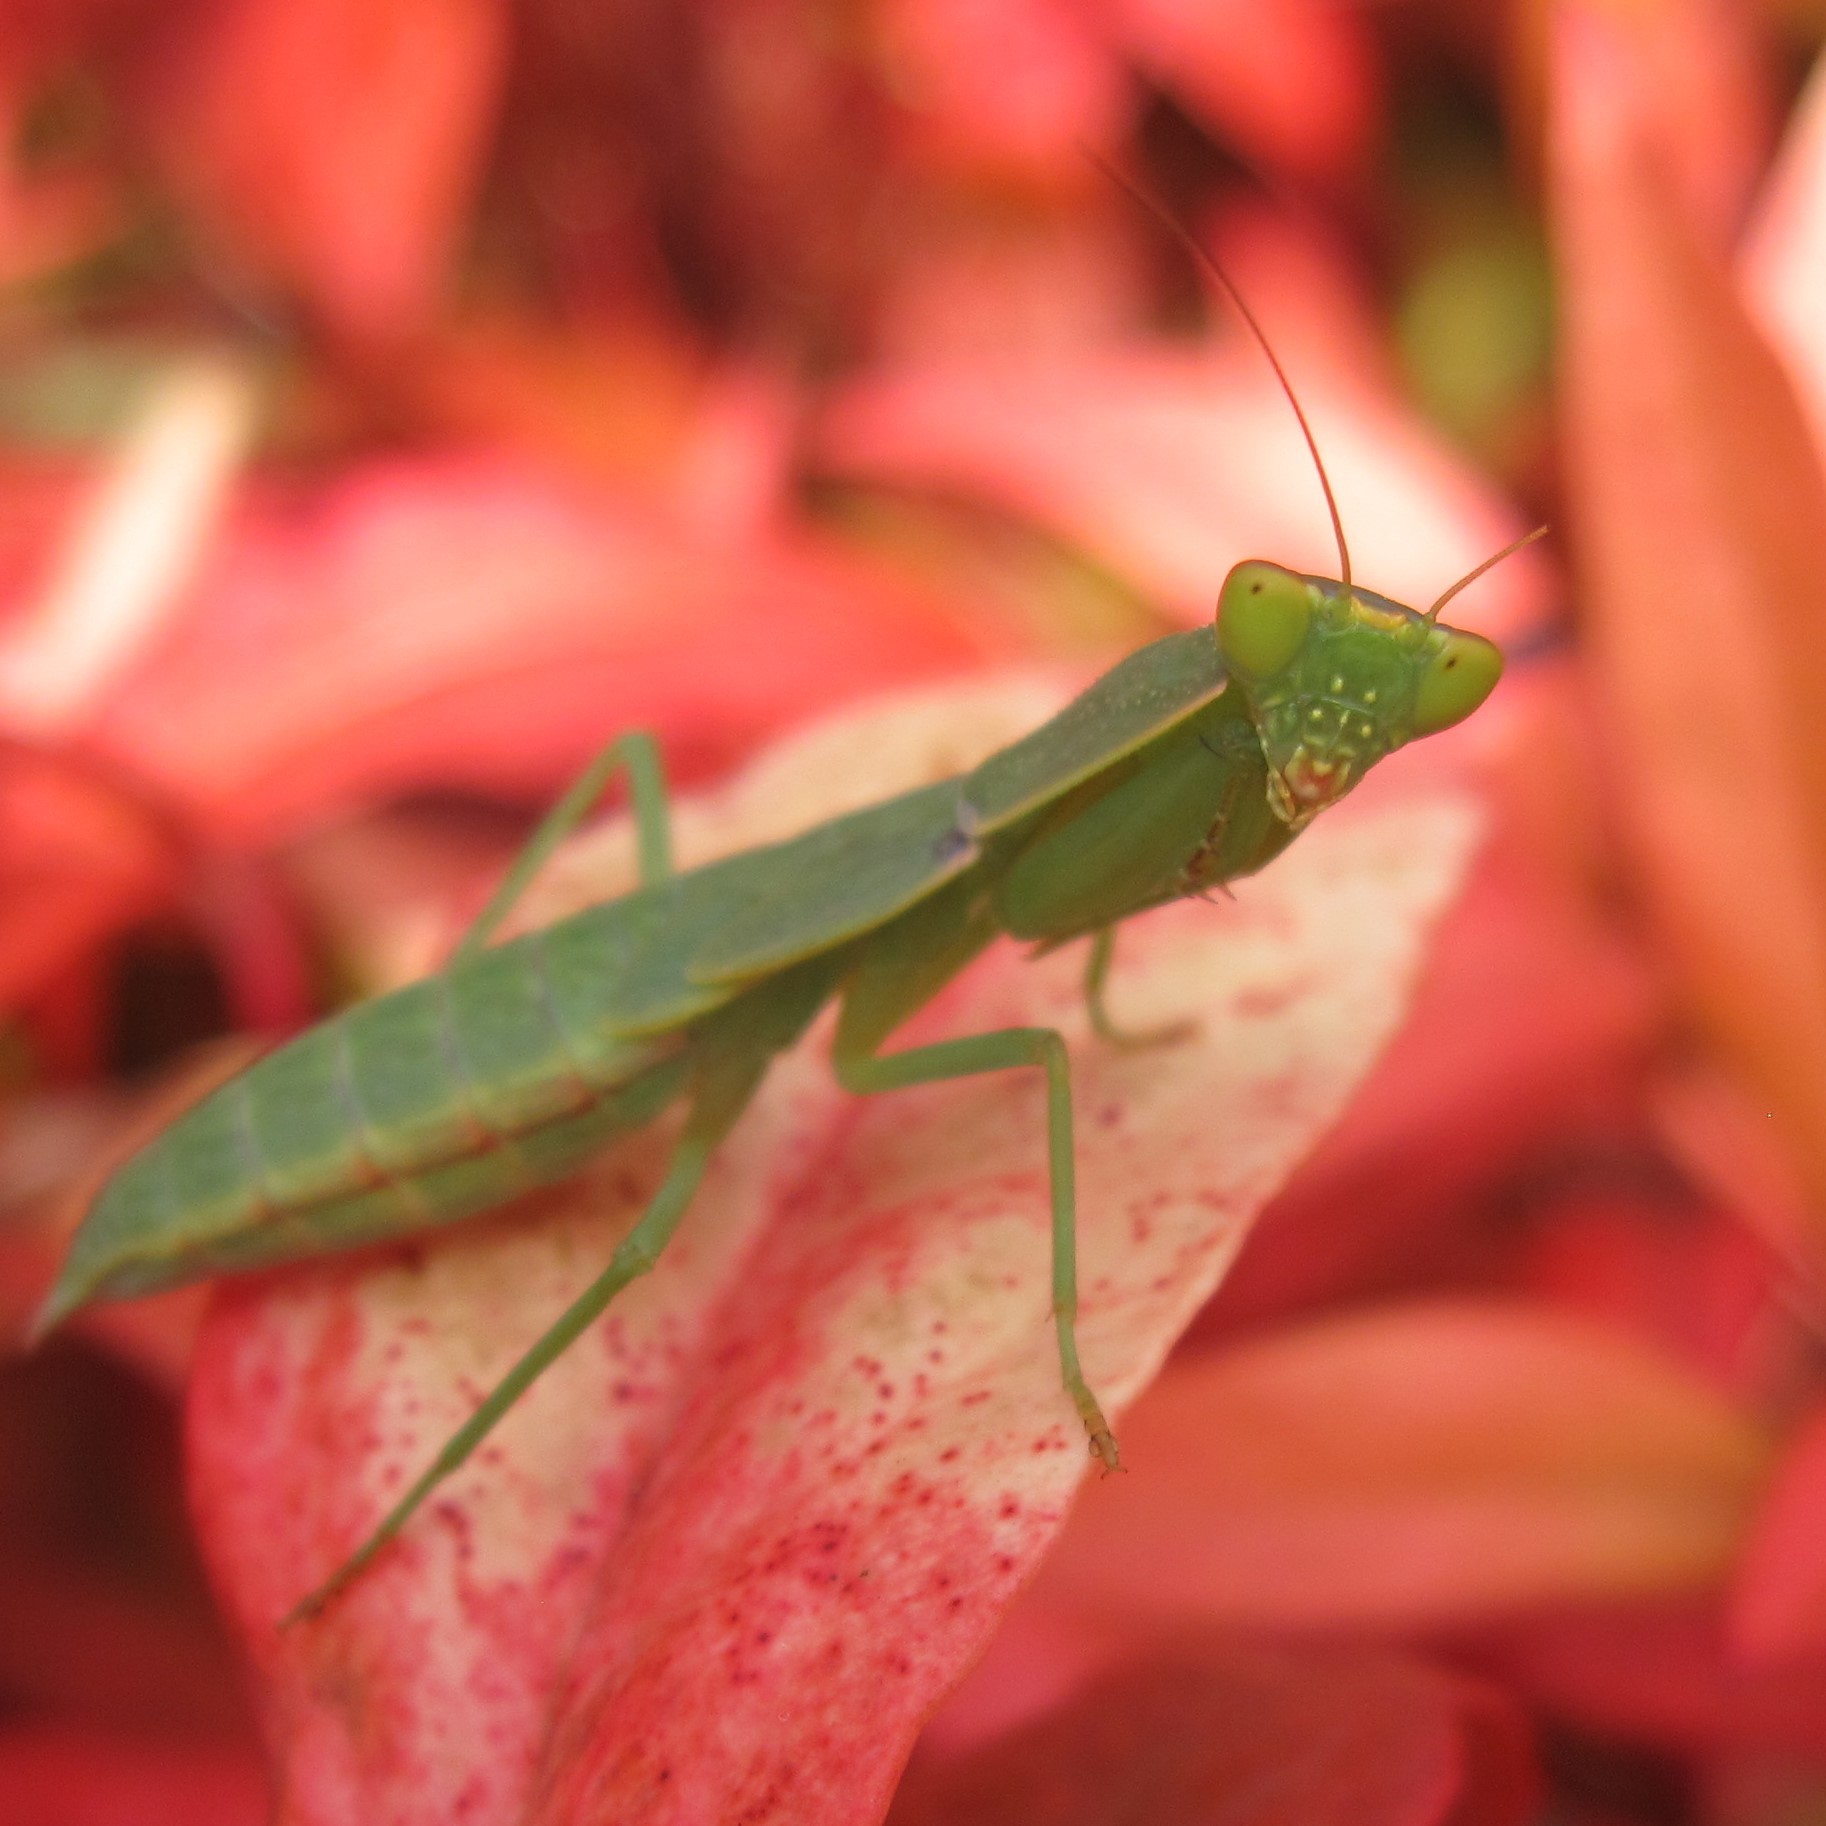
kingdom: Animalia
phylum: Arthropoda
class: Insecta
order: Mantodea
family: Mantidae
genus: Orthodera
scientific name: Orthodera novaezealandiae
